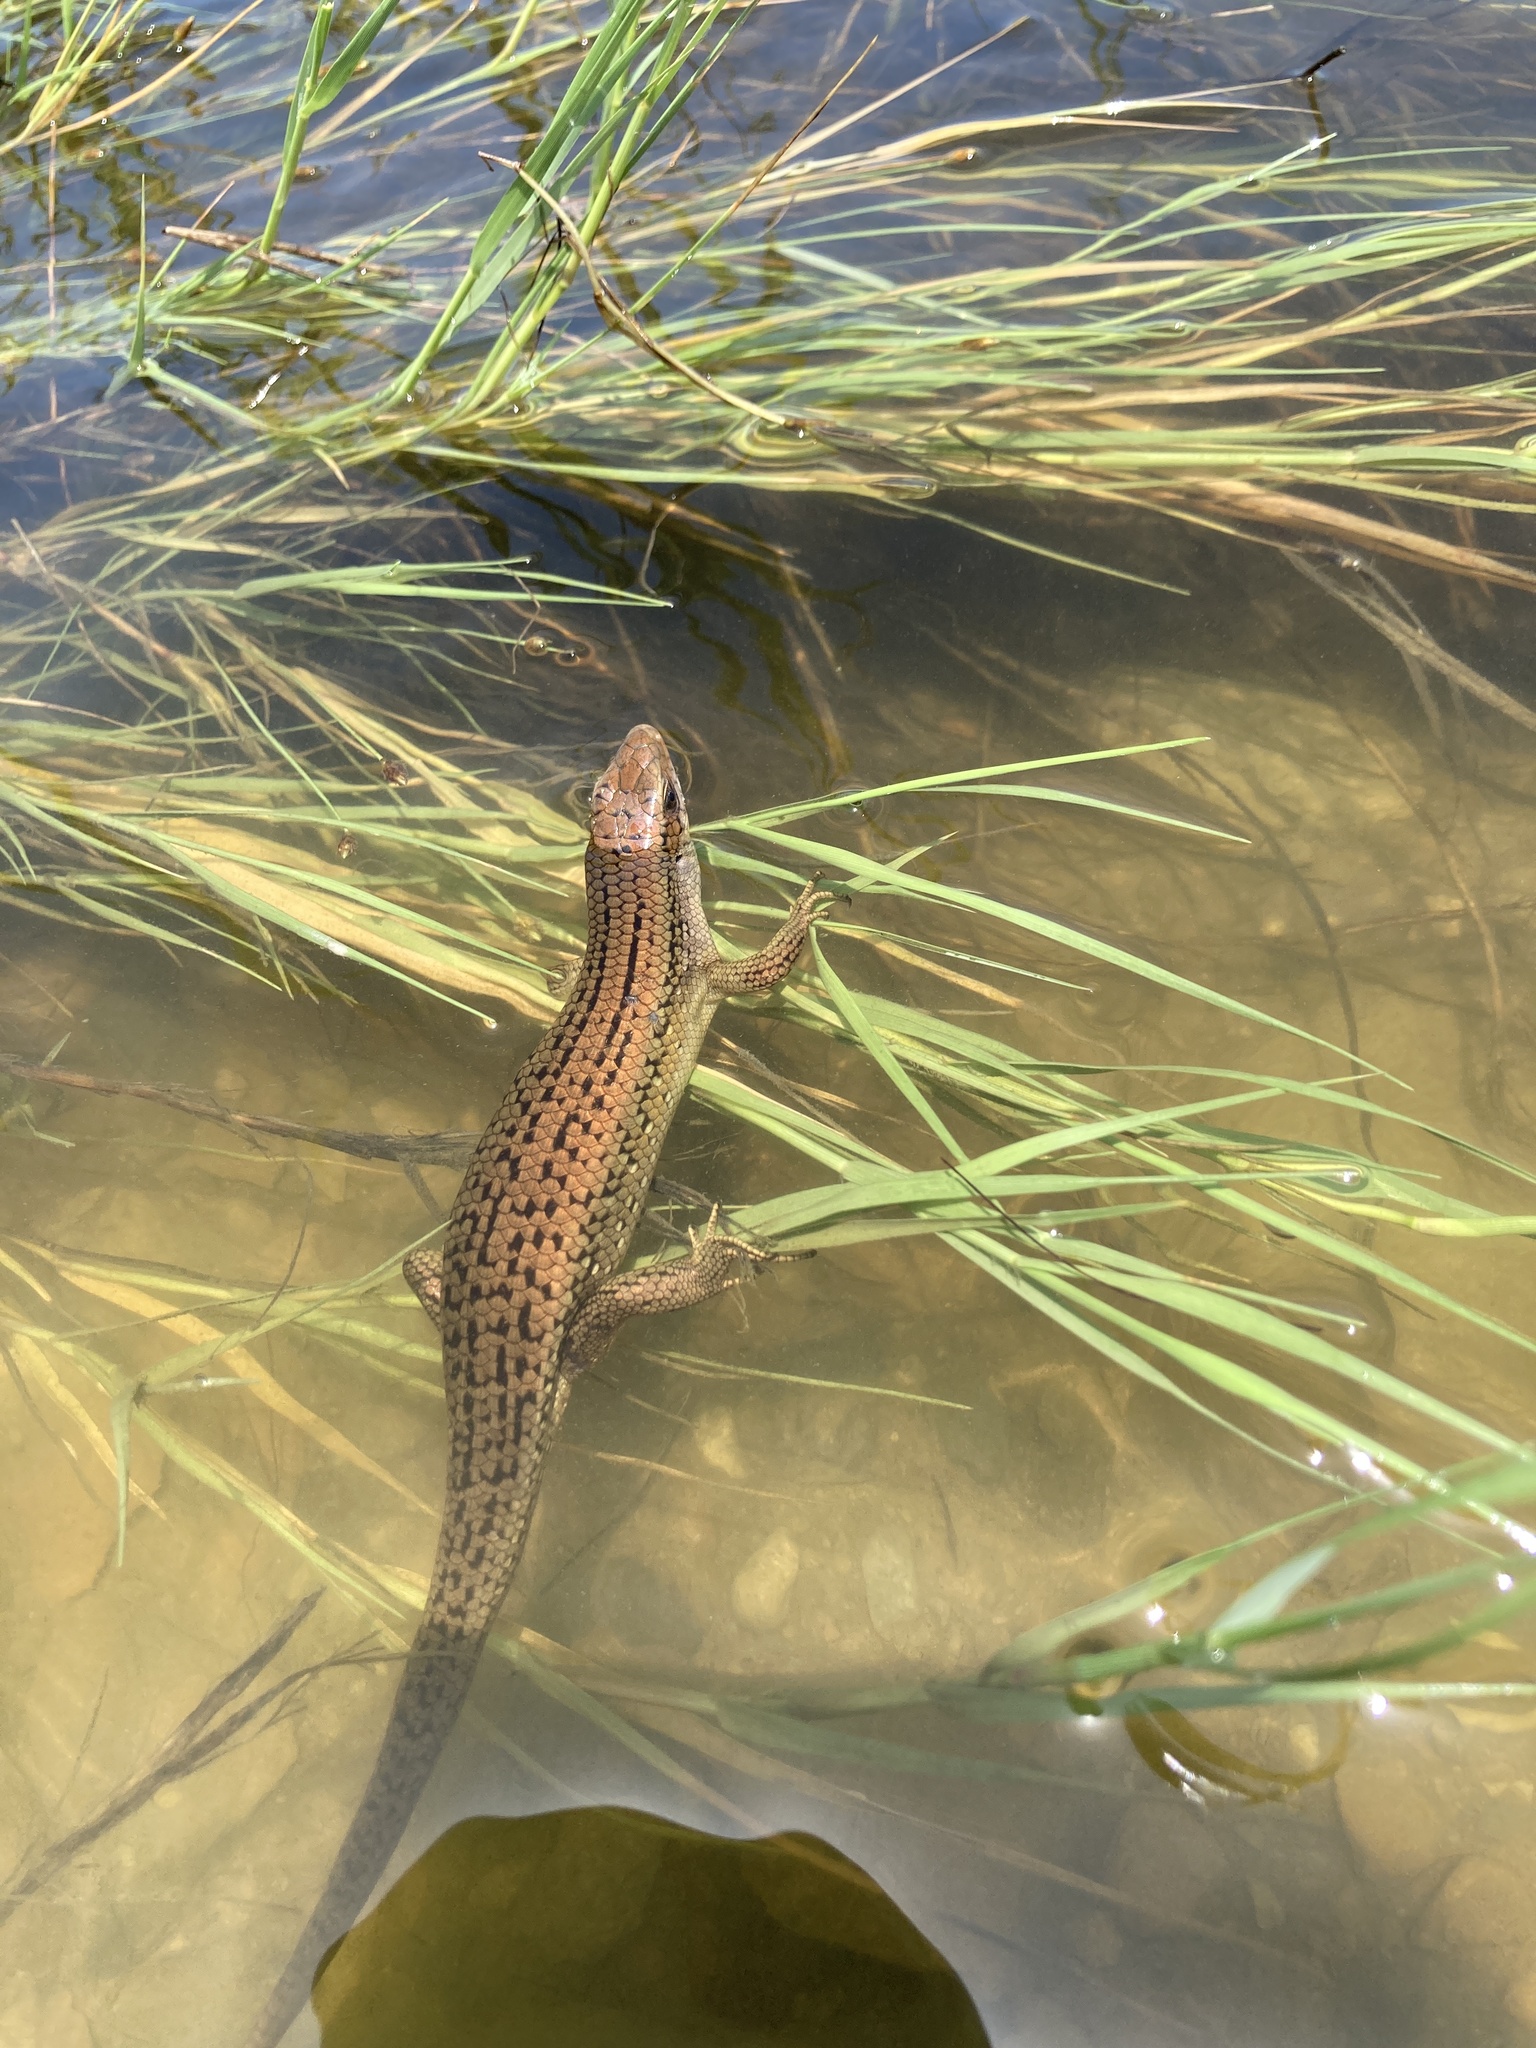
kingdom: Animalia
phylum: Chordata
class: Squamata
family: Scincidae
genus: Eutropis
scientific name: Eutropis multifasciata
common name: Common mabuya
